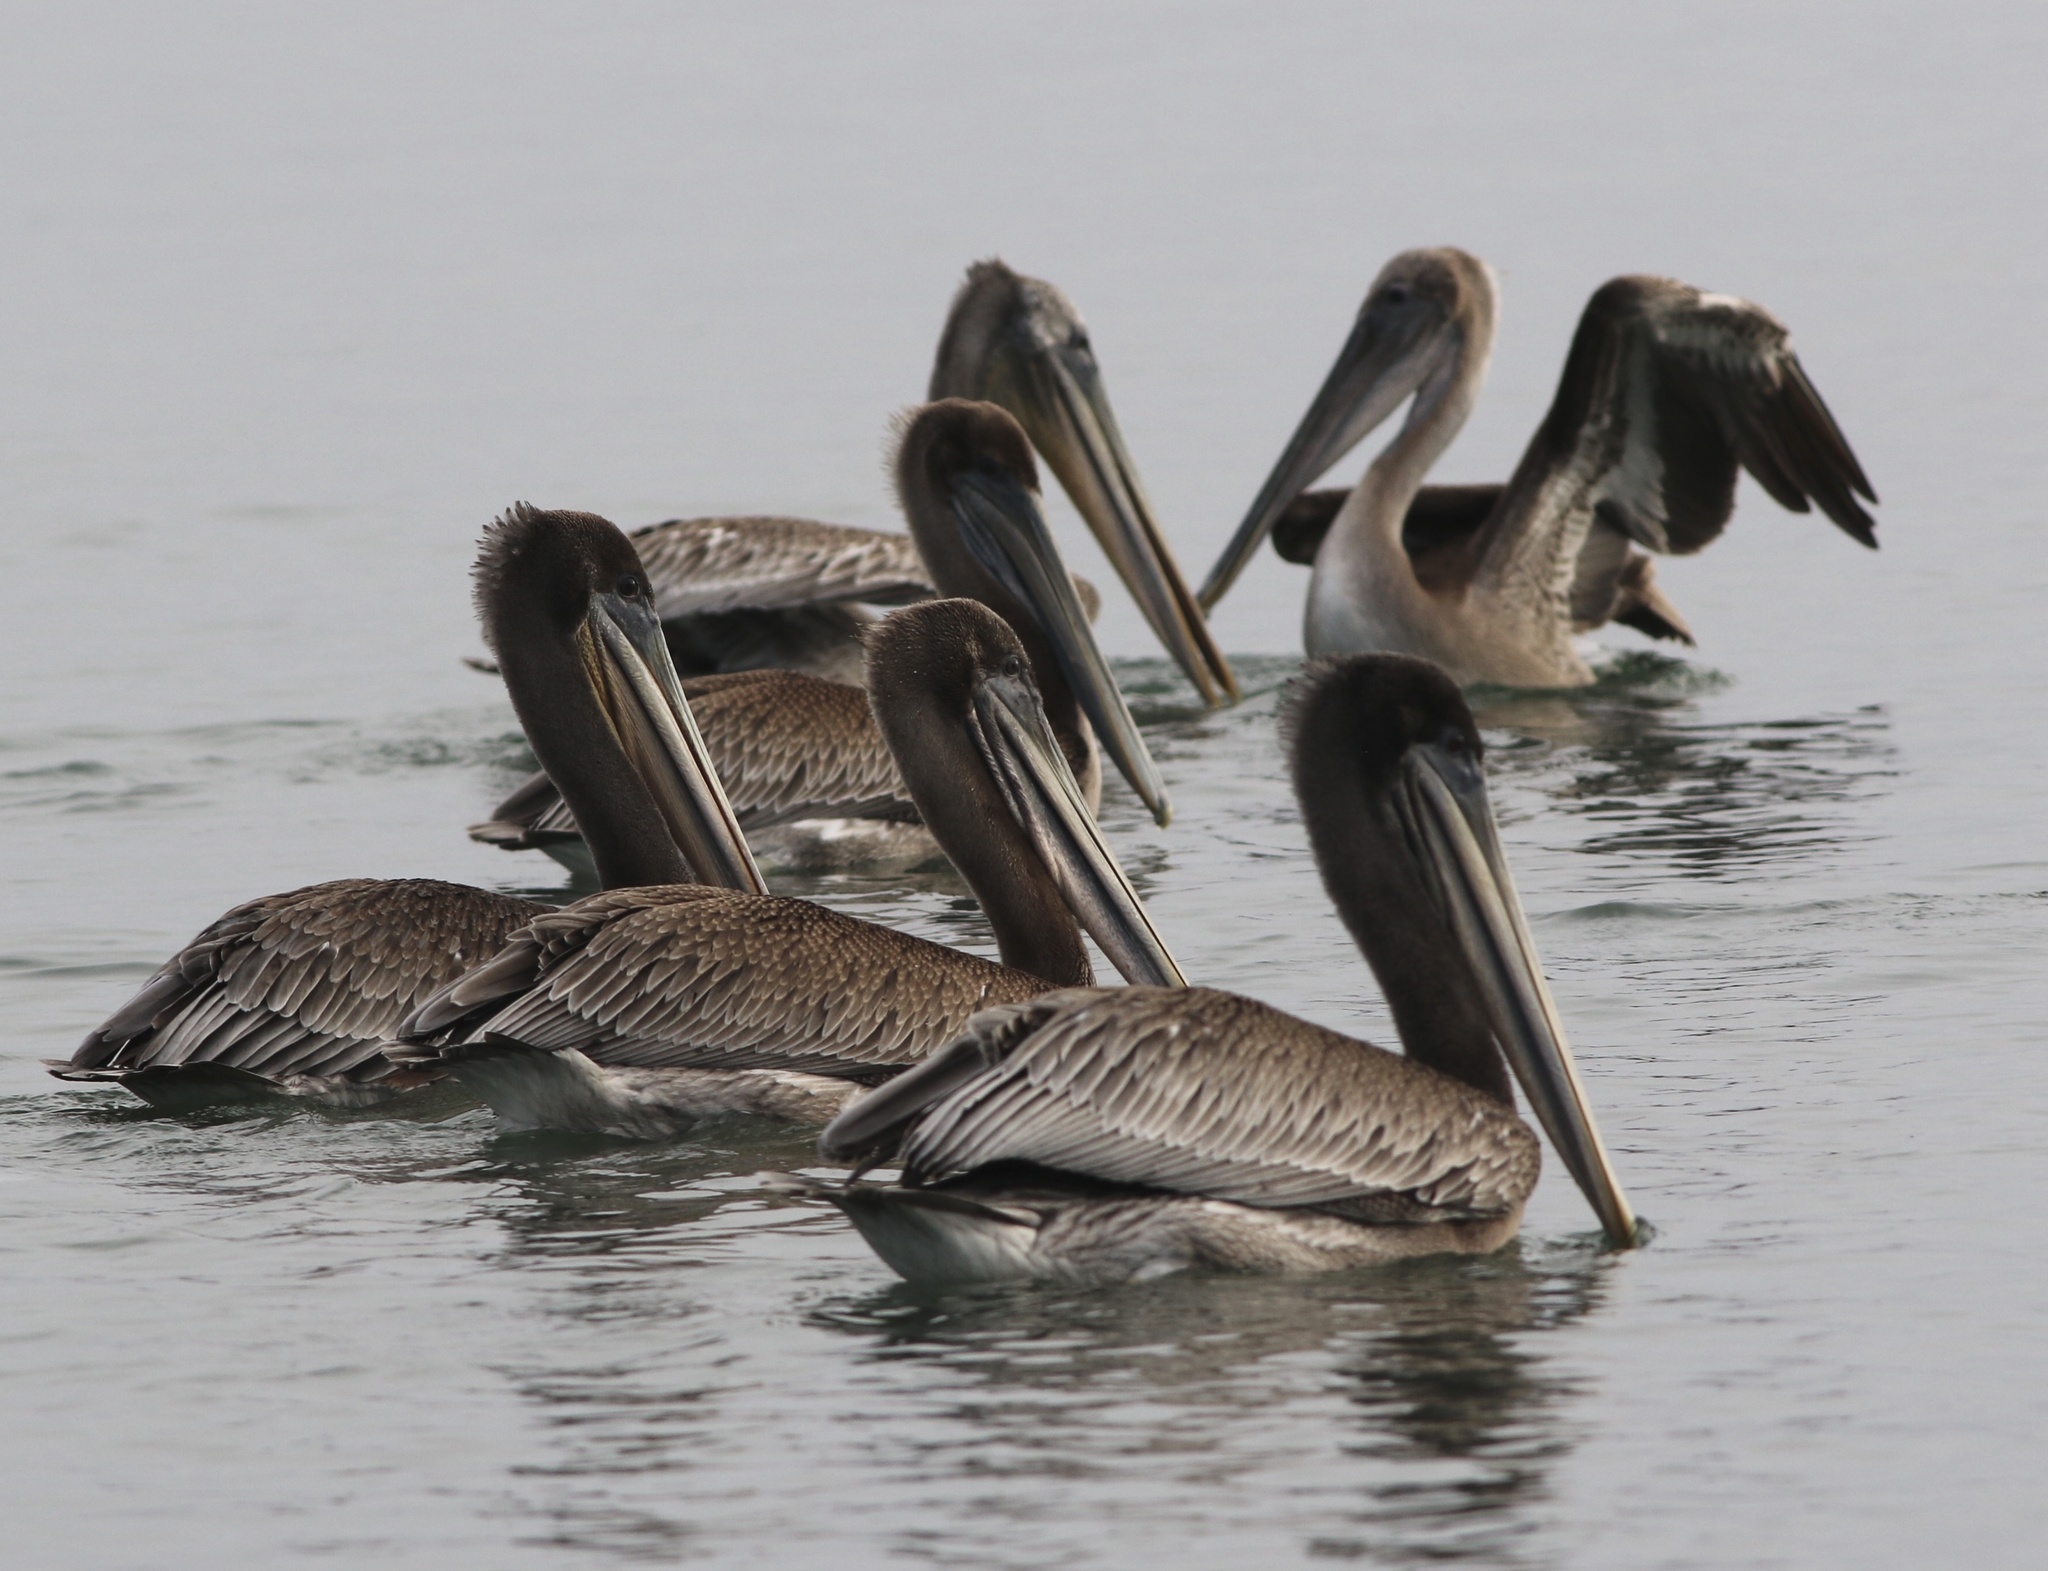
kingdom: Animalia
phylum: Chordata
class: Aves
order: Pelecaniformes
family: Pelecanidae
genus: Pelecanus
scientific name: Pelecanus occidentalis
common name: Brown pelican
